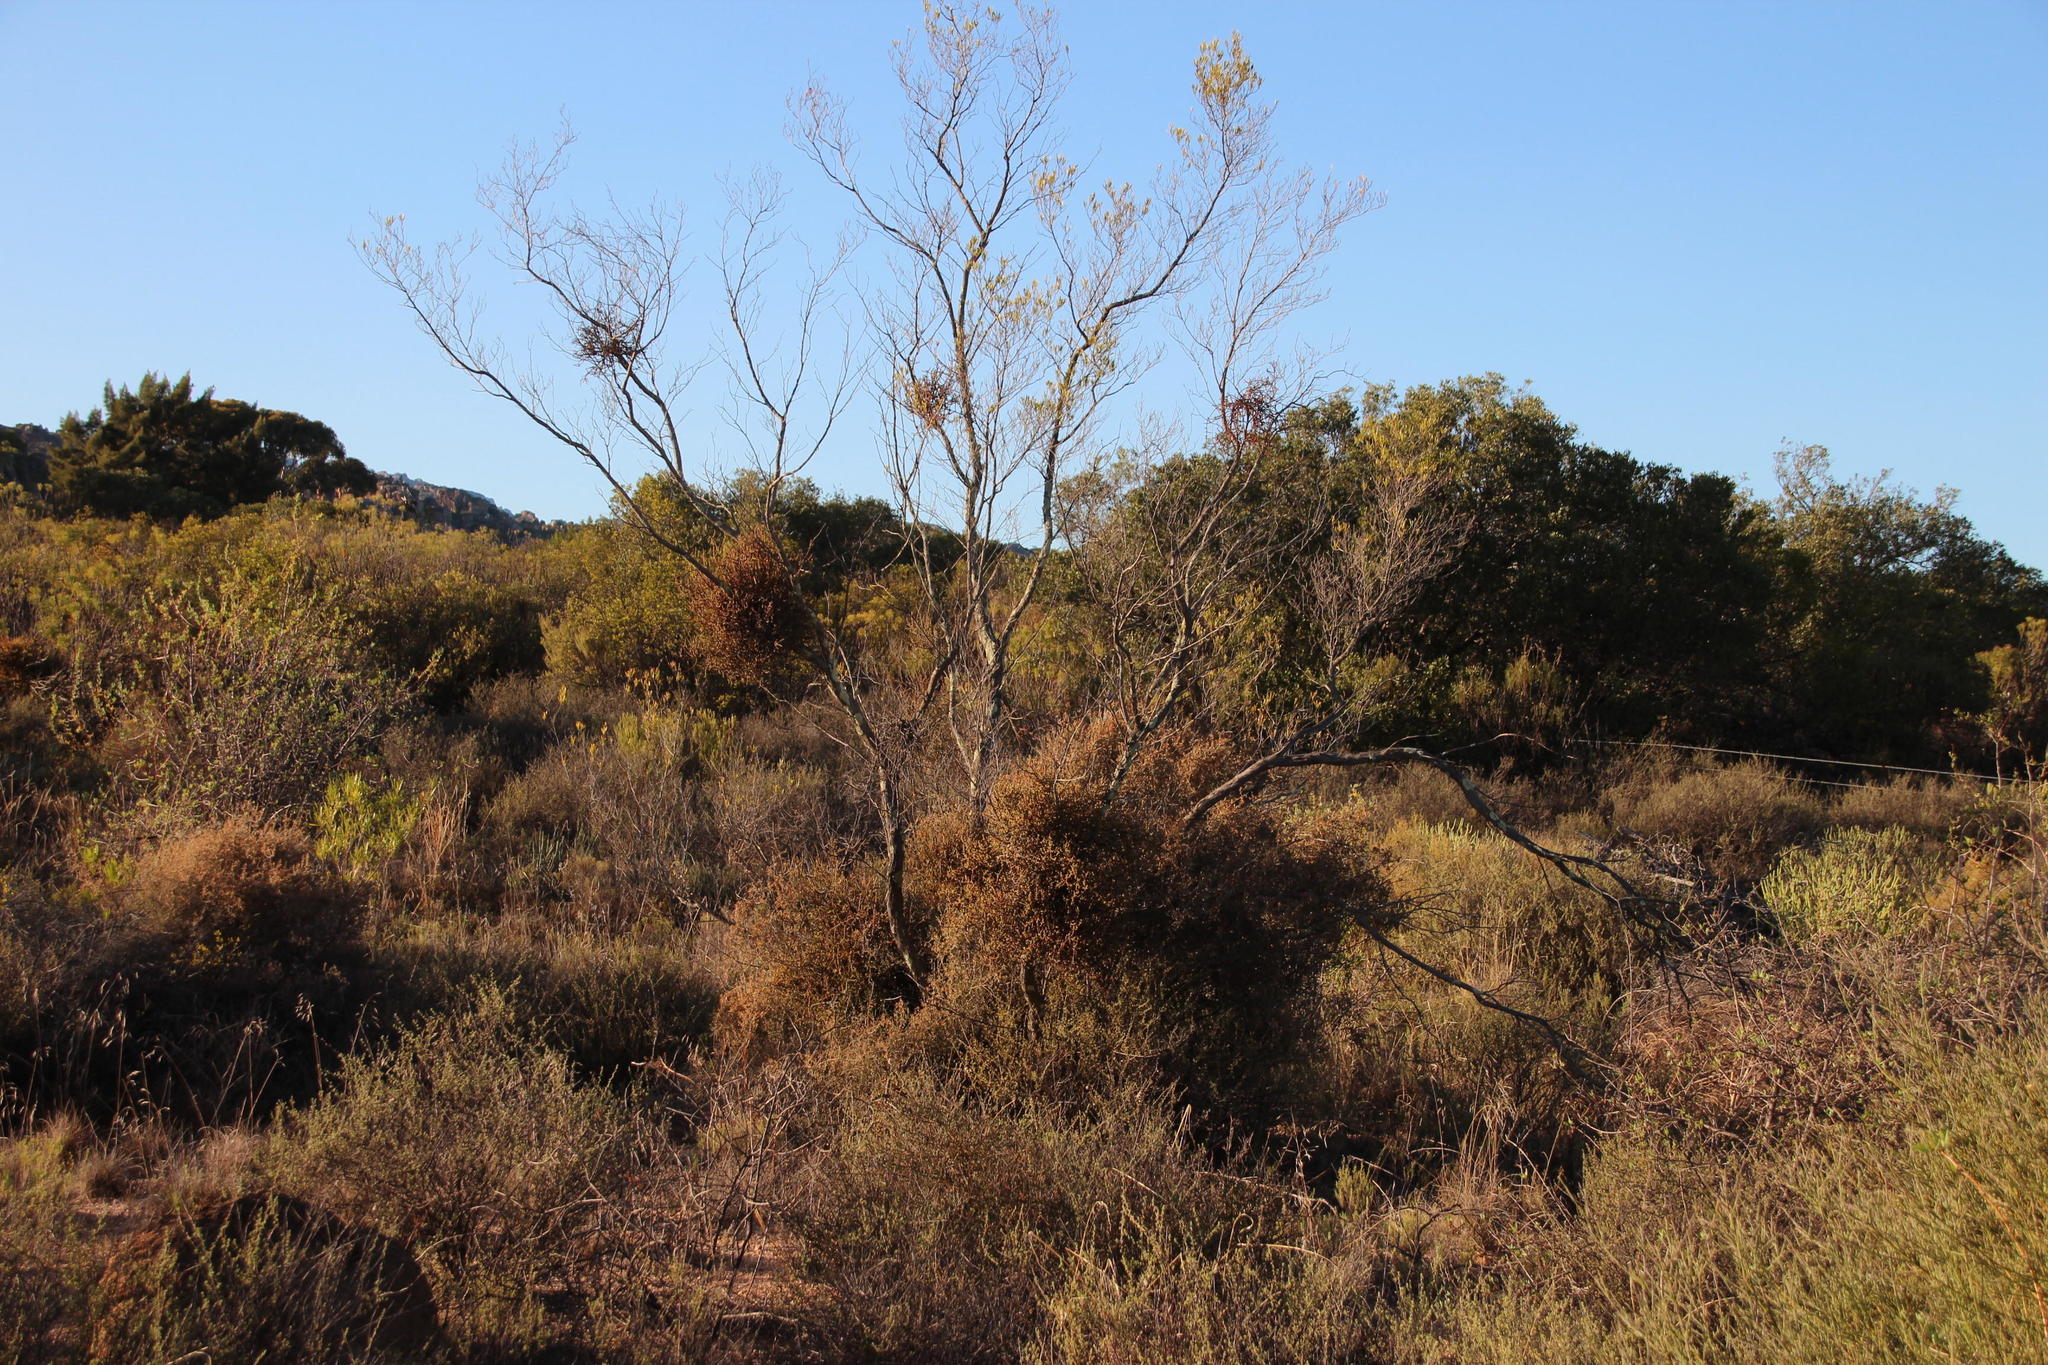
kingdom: Plantae
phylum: Tracheophyta
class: Magnoliopsida
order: Santalales
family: Viscaceae
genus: Viscum
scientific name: Viscum capense
